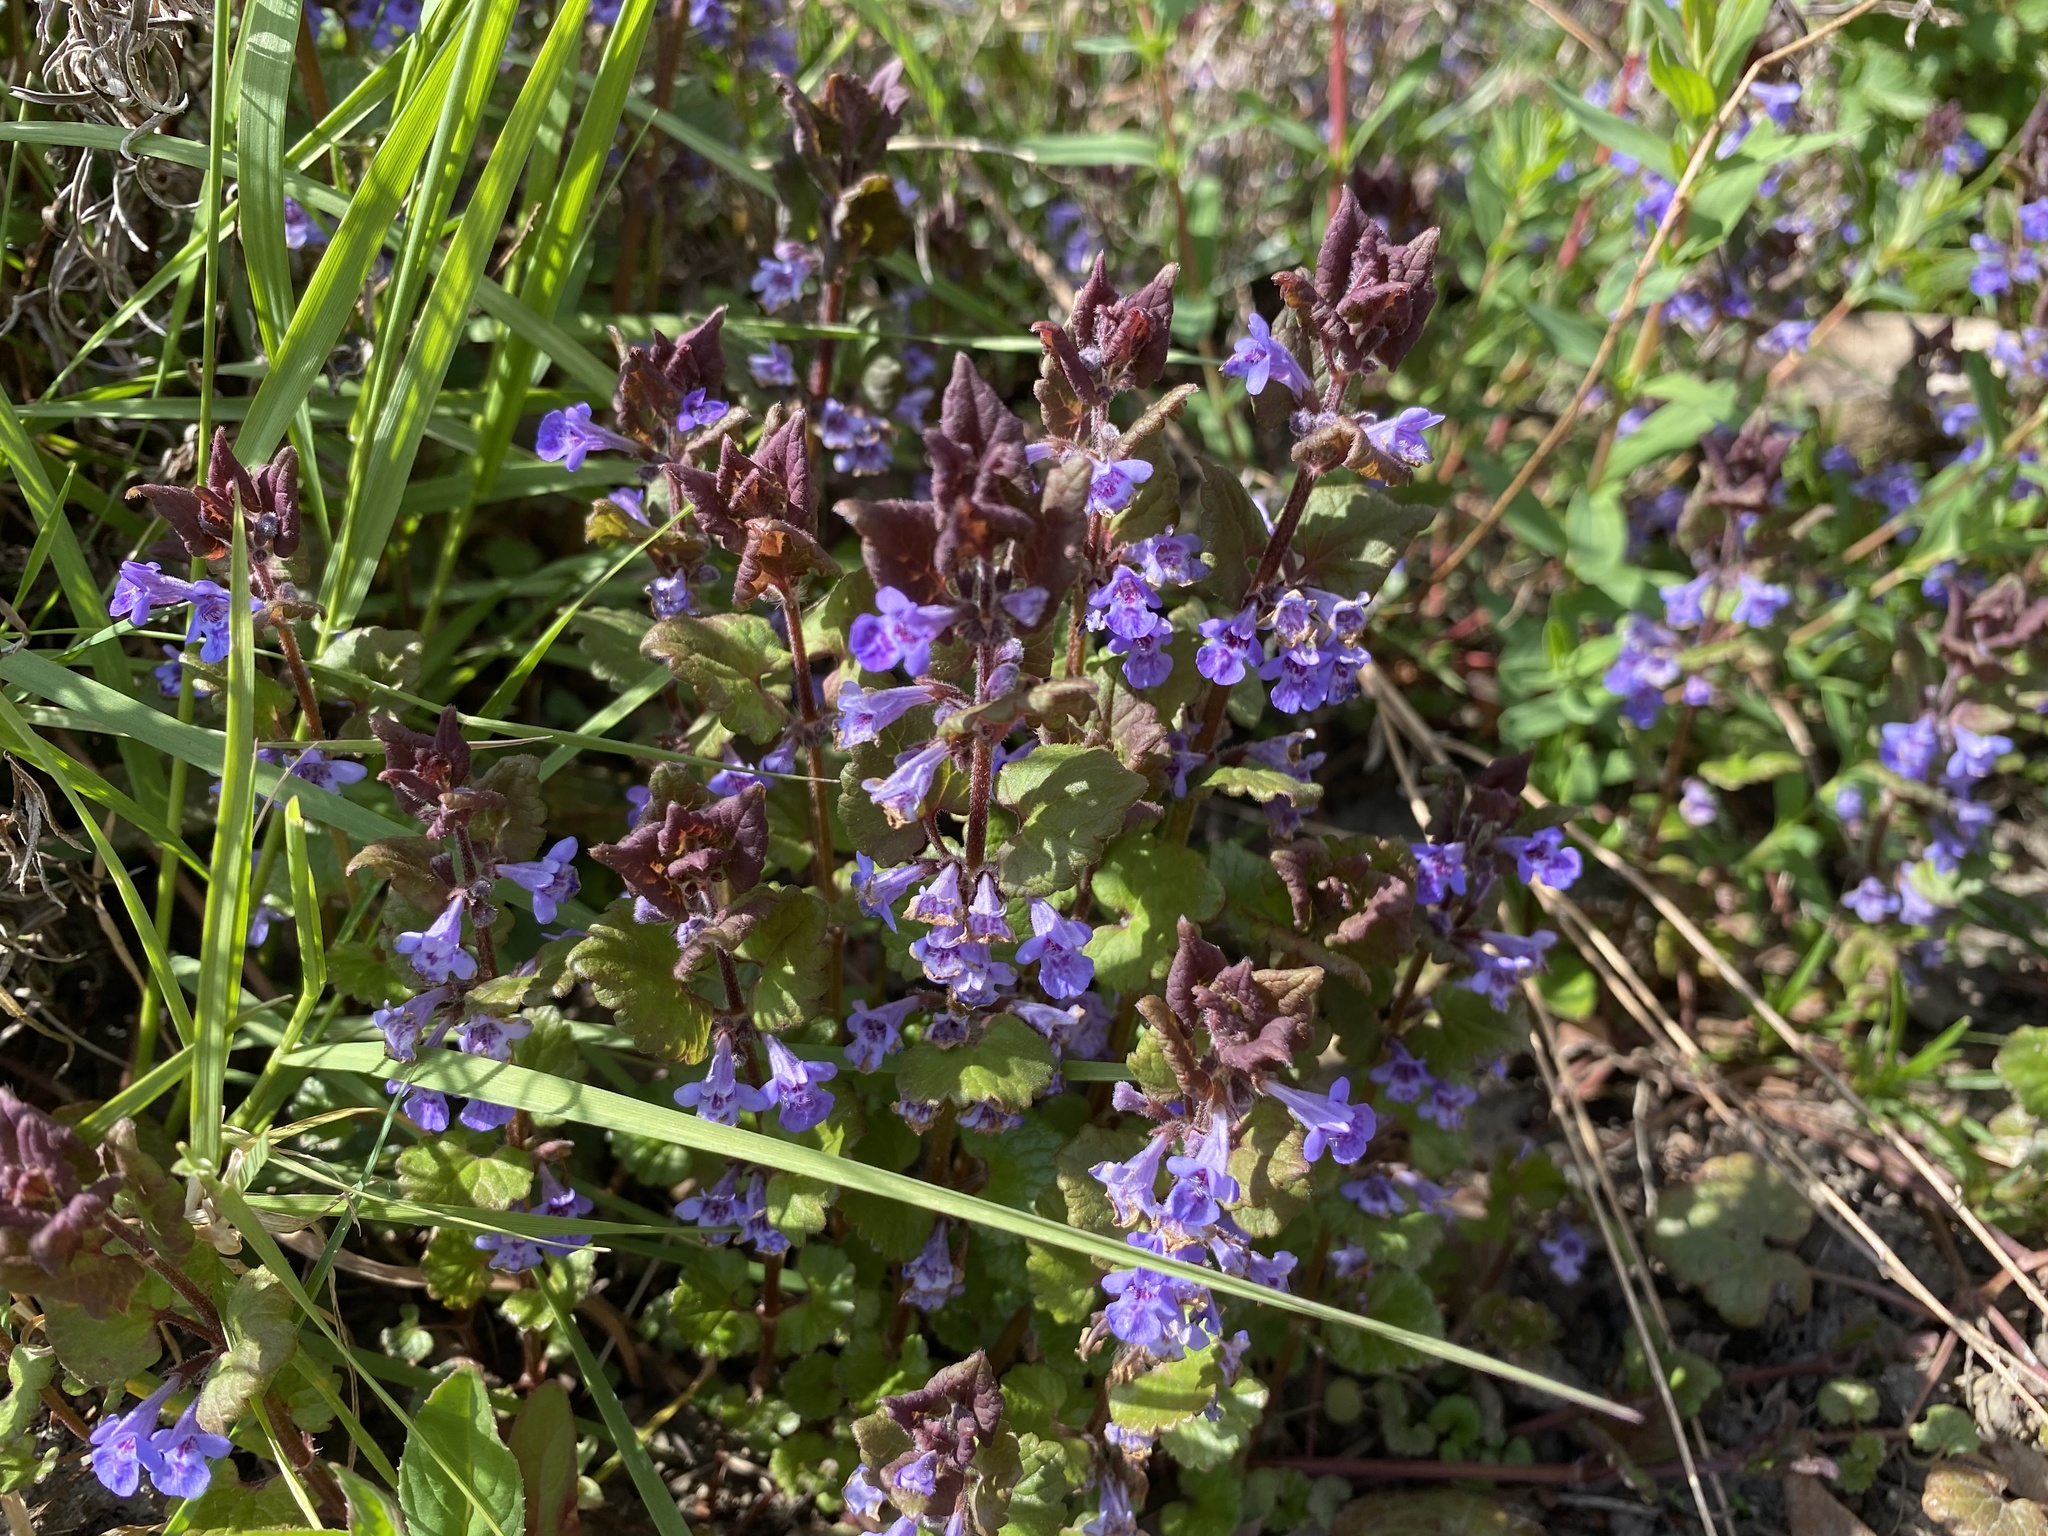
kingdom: Plantae
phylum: Tracheophyta
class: Magnoliopsida
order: Lamiales
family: Lamiaceae
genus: Glechoma
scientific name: Glechoma hederacea
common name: Ground ivy
